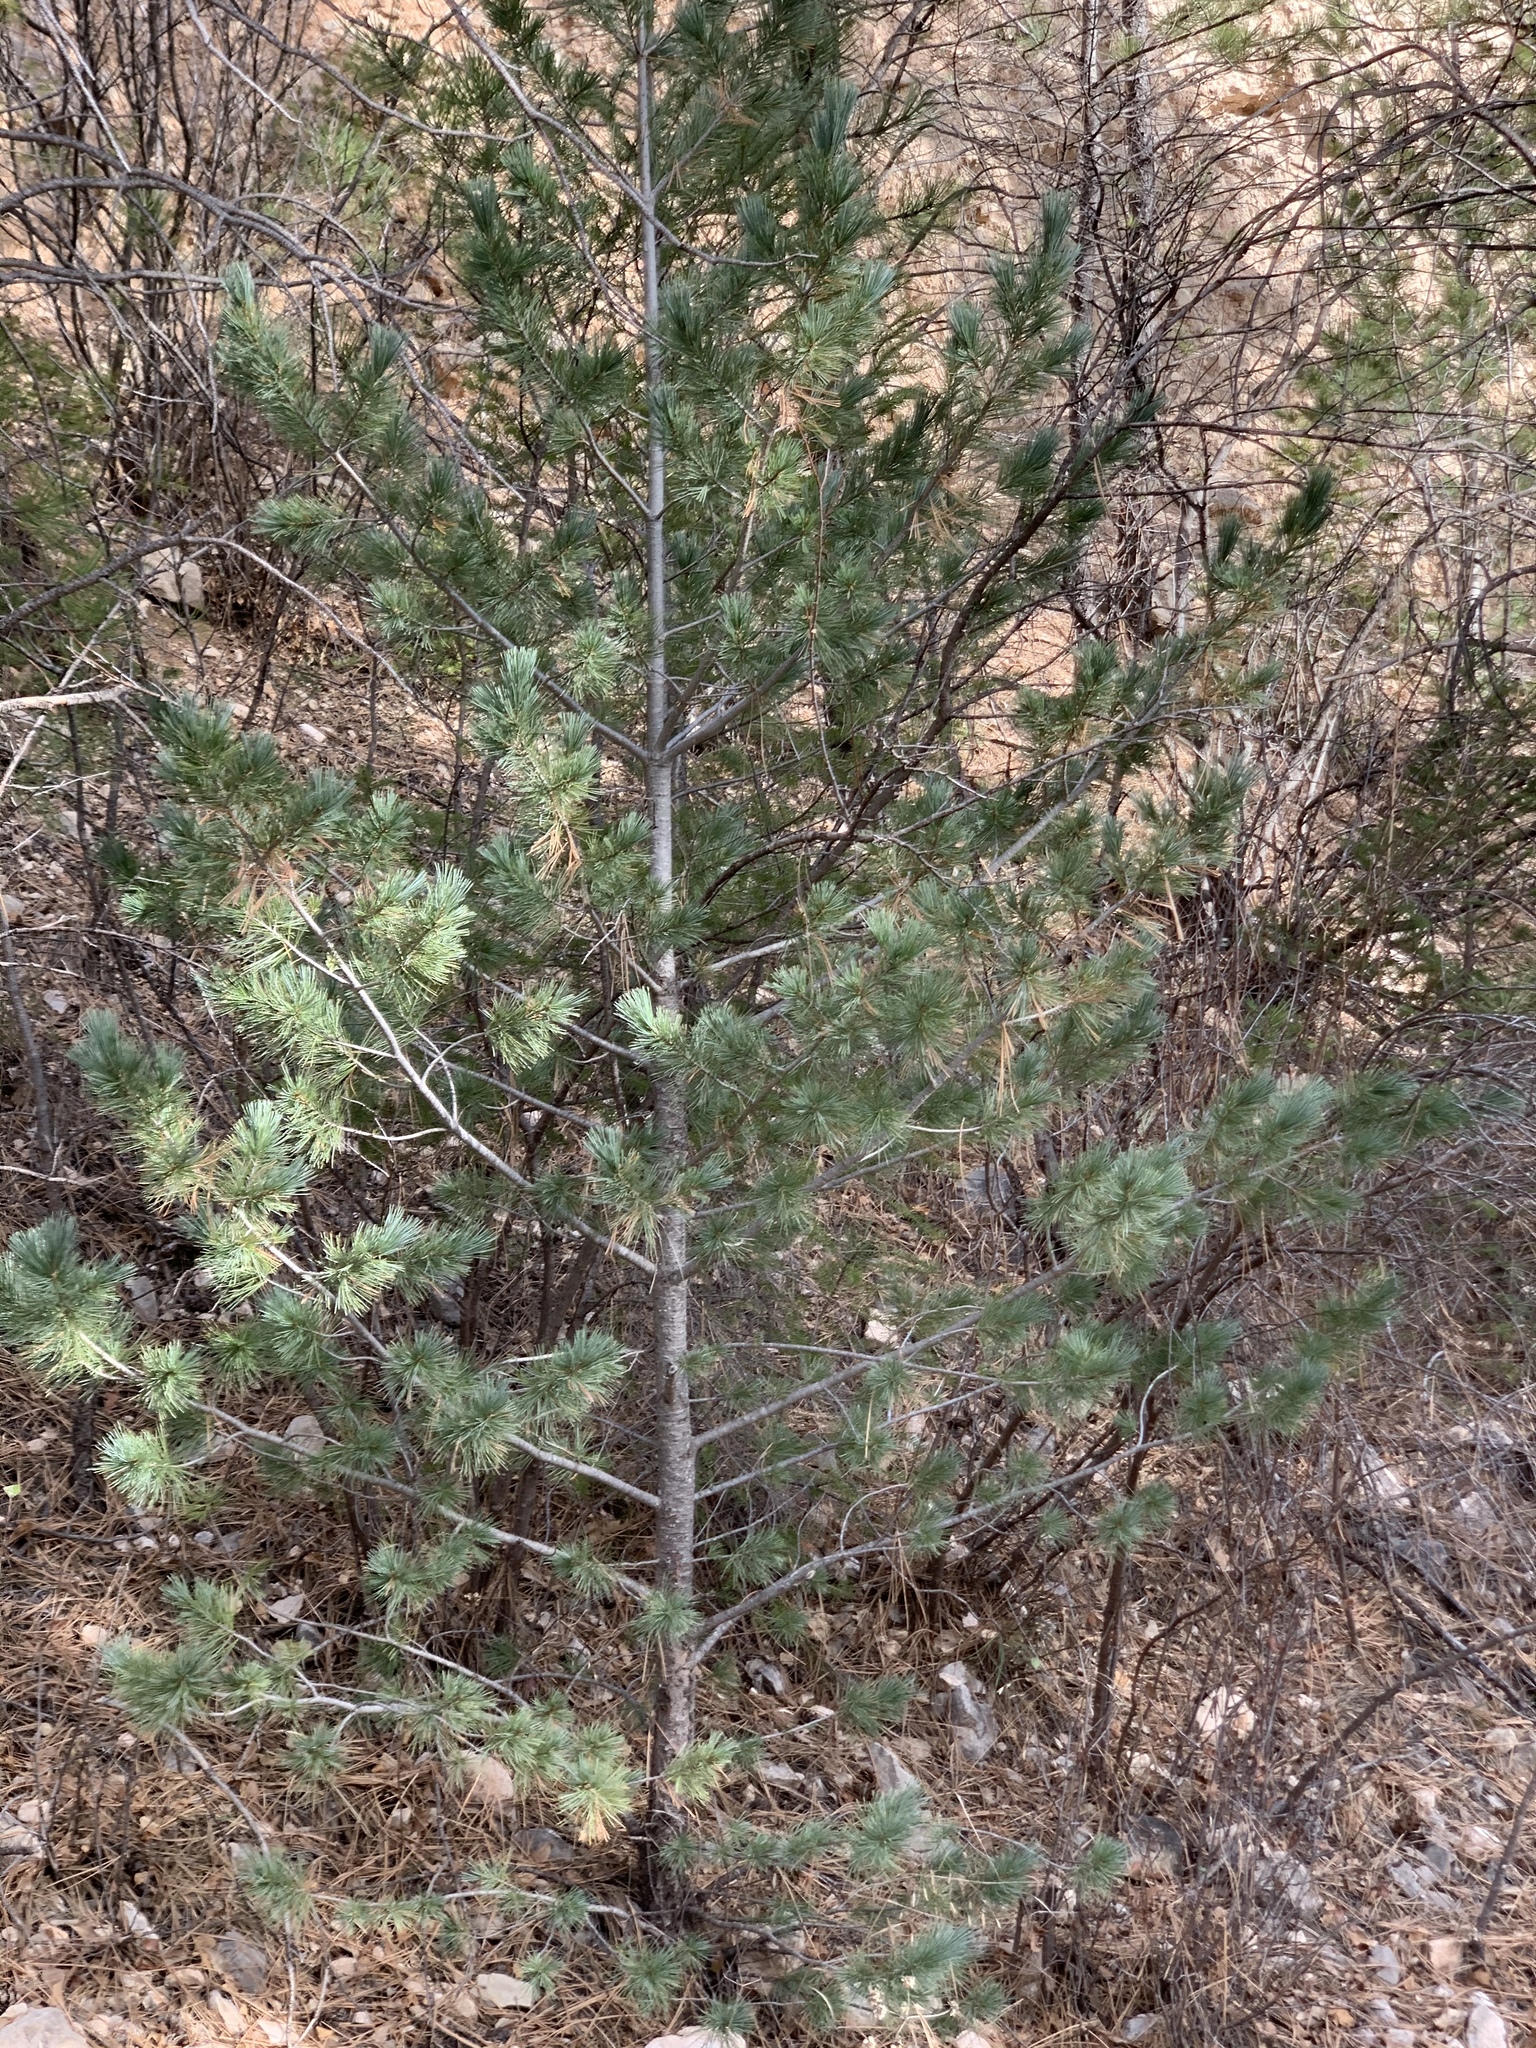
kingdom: Plantae
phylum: Tracheophyta
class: Pinopsida
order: Pinales
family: Pinaceae
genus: Pinus
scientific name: Pinus strobiformis
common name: Southwestern white pine
